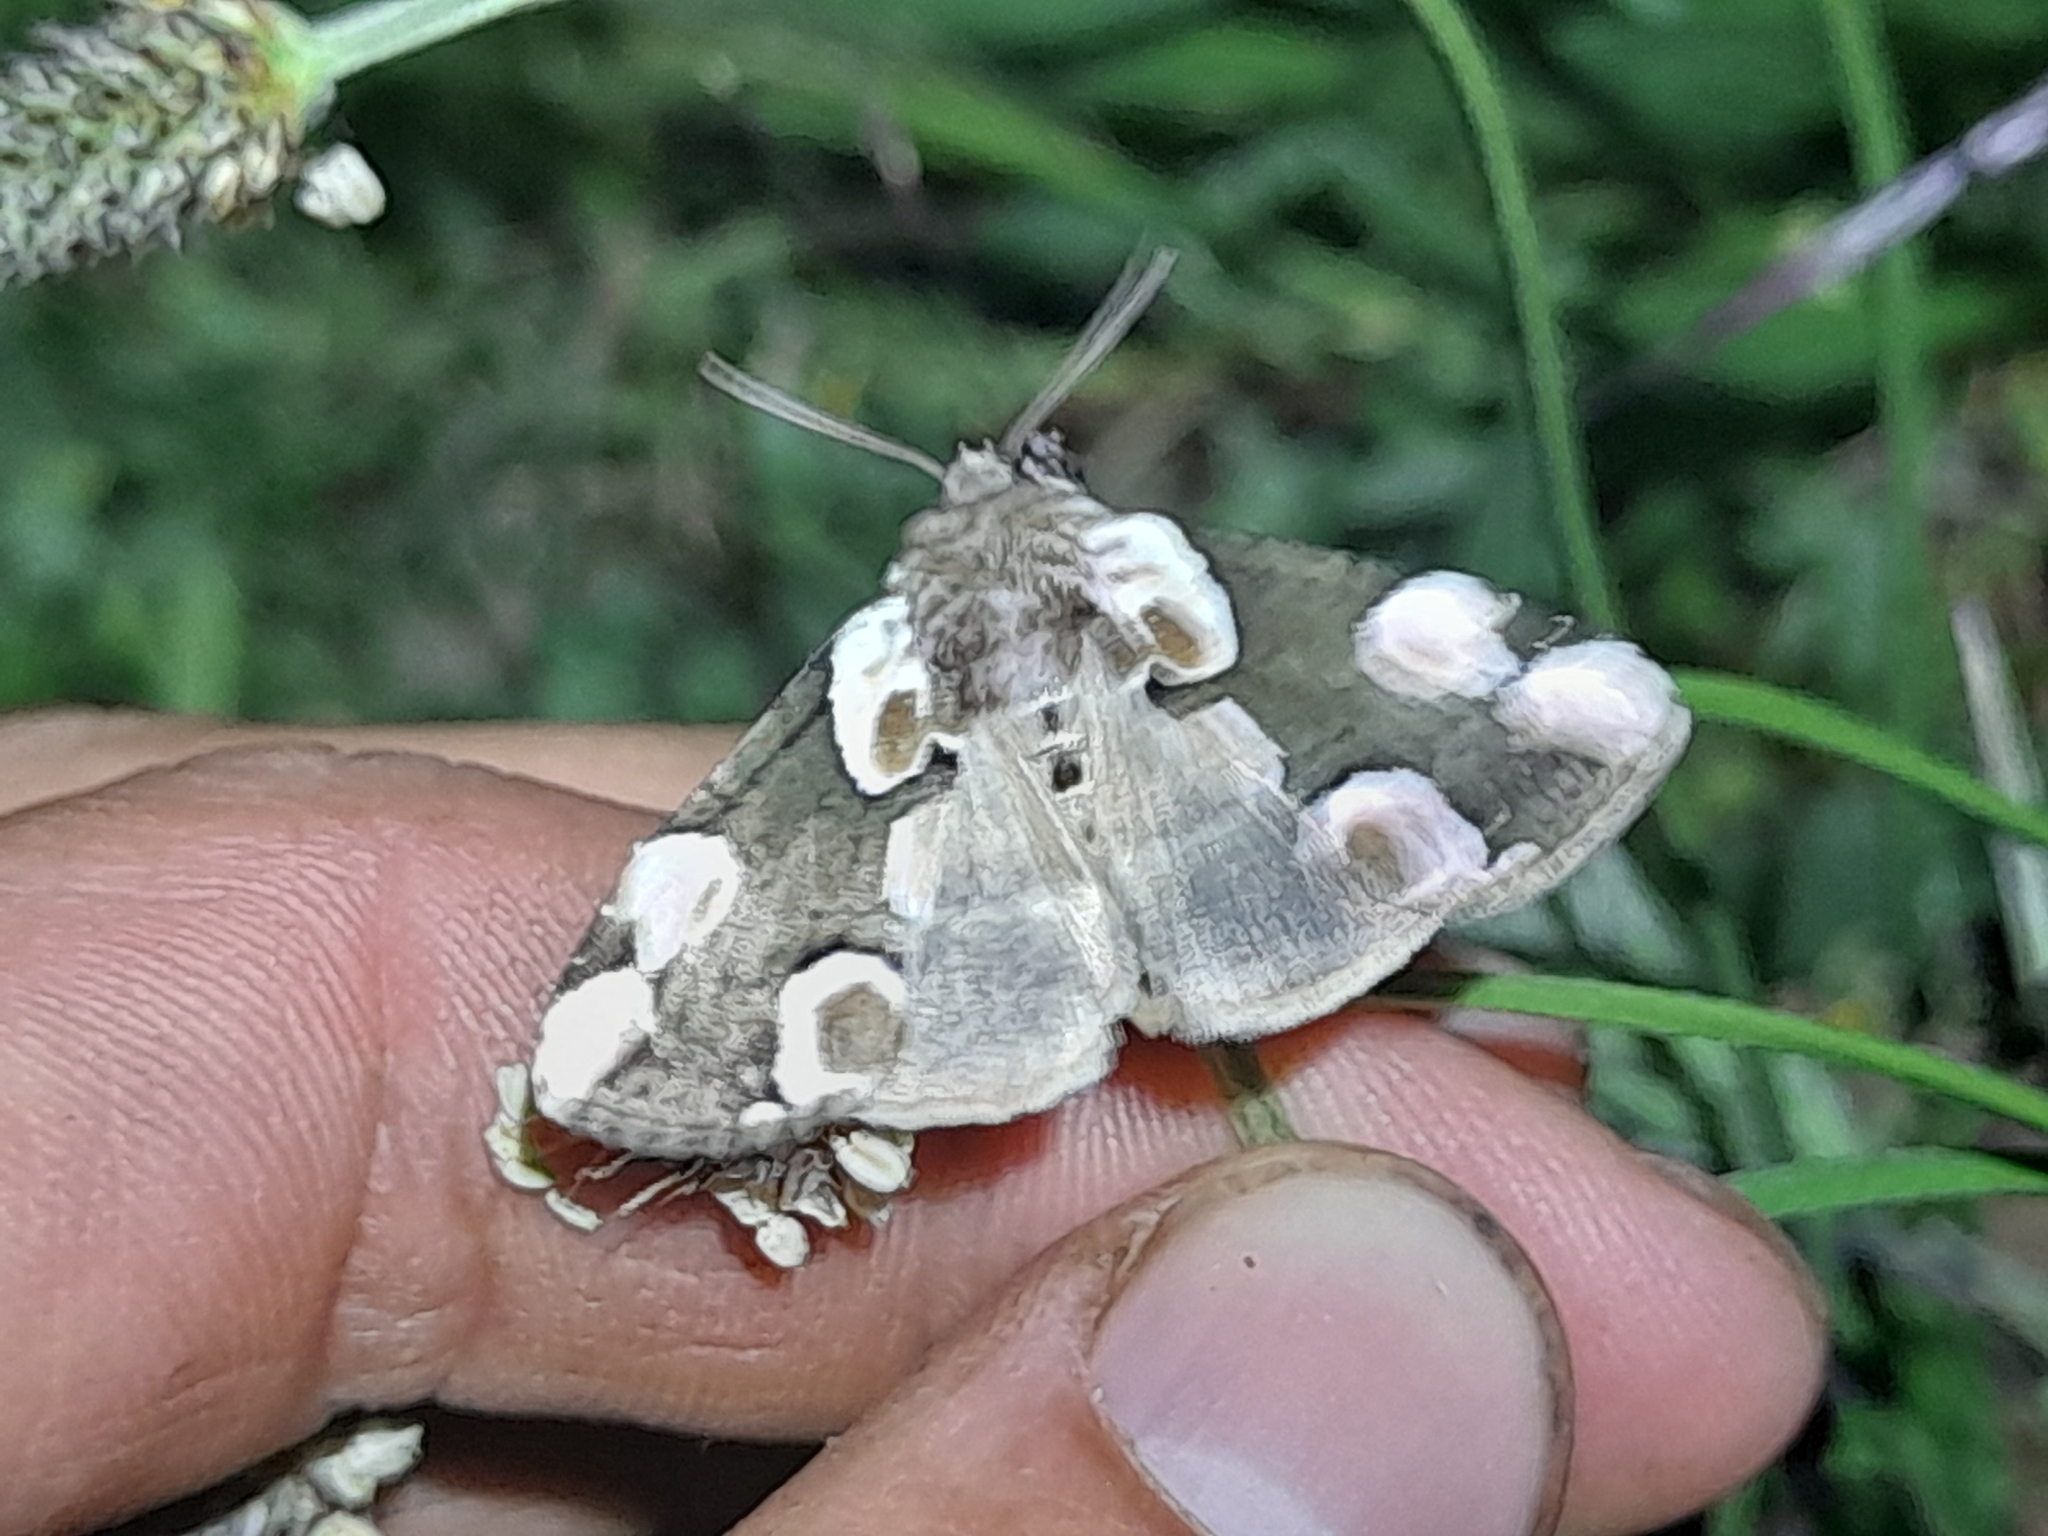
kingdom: Animalia
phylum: Arthropoda
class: Insecta
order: Lepidoptera
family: Drepanidae
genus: Thyatira
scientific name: Thyatira batis
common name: Peach blossom
